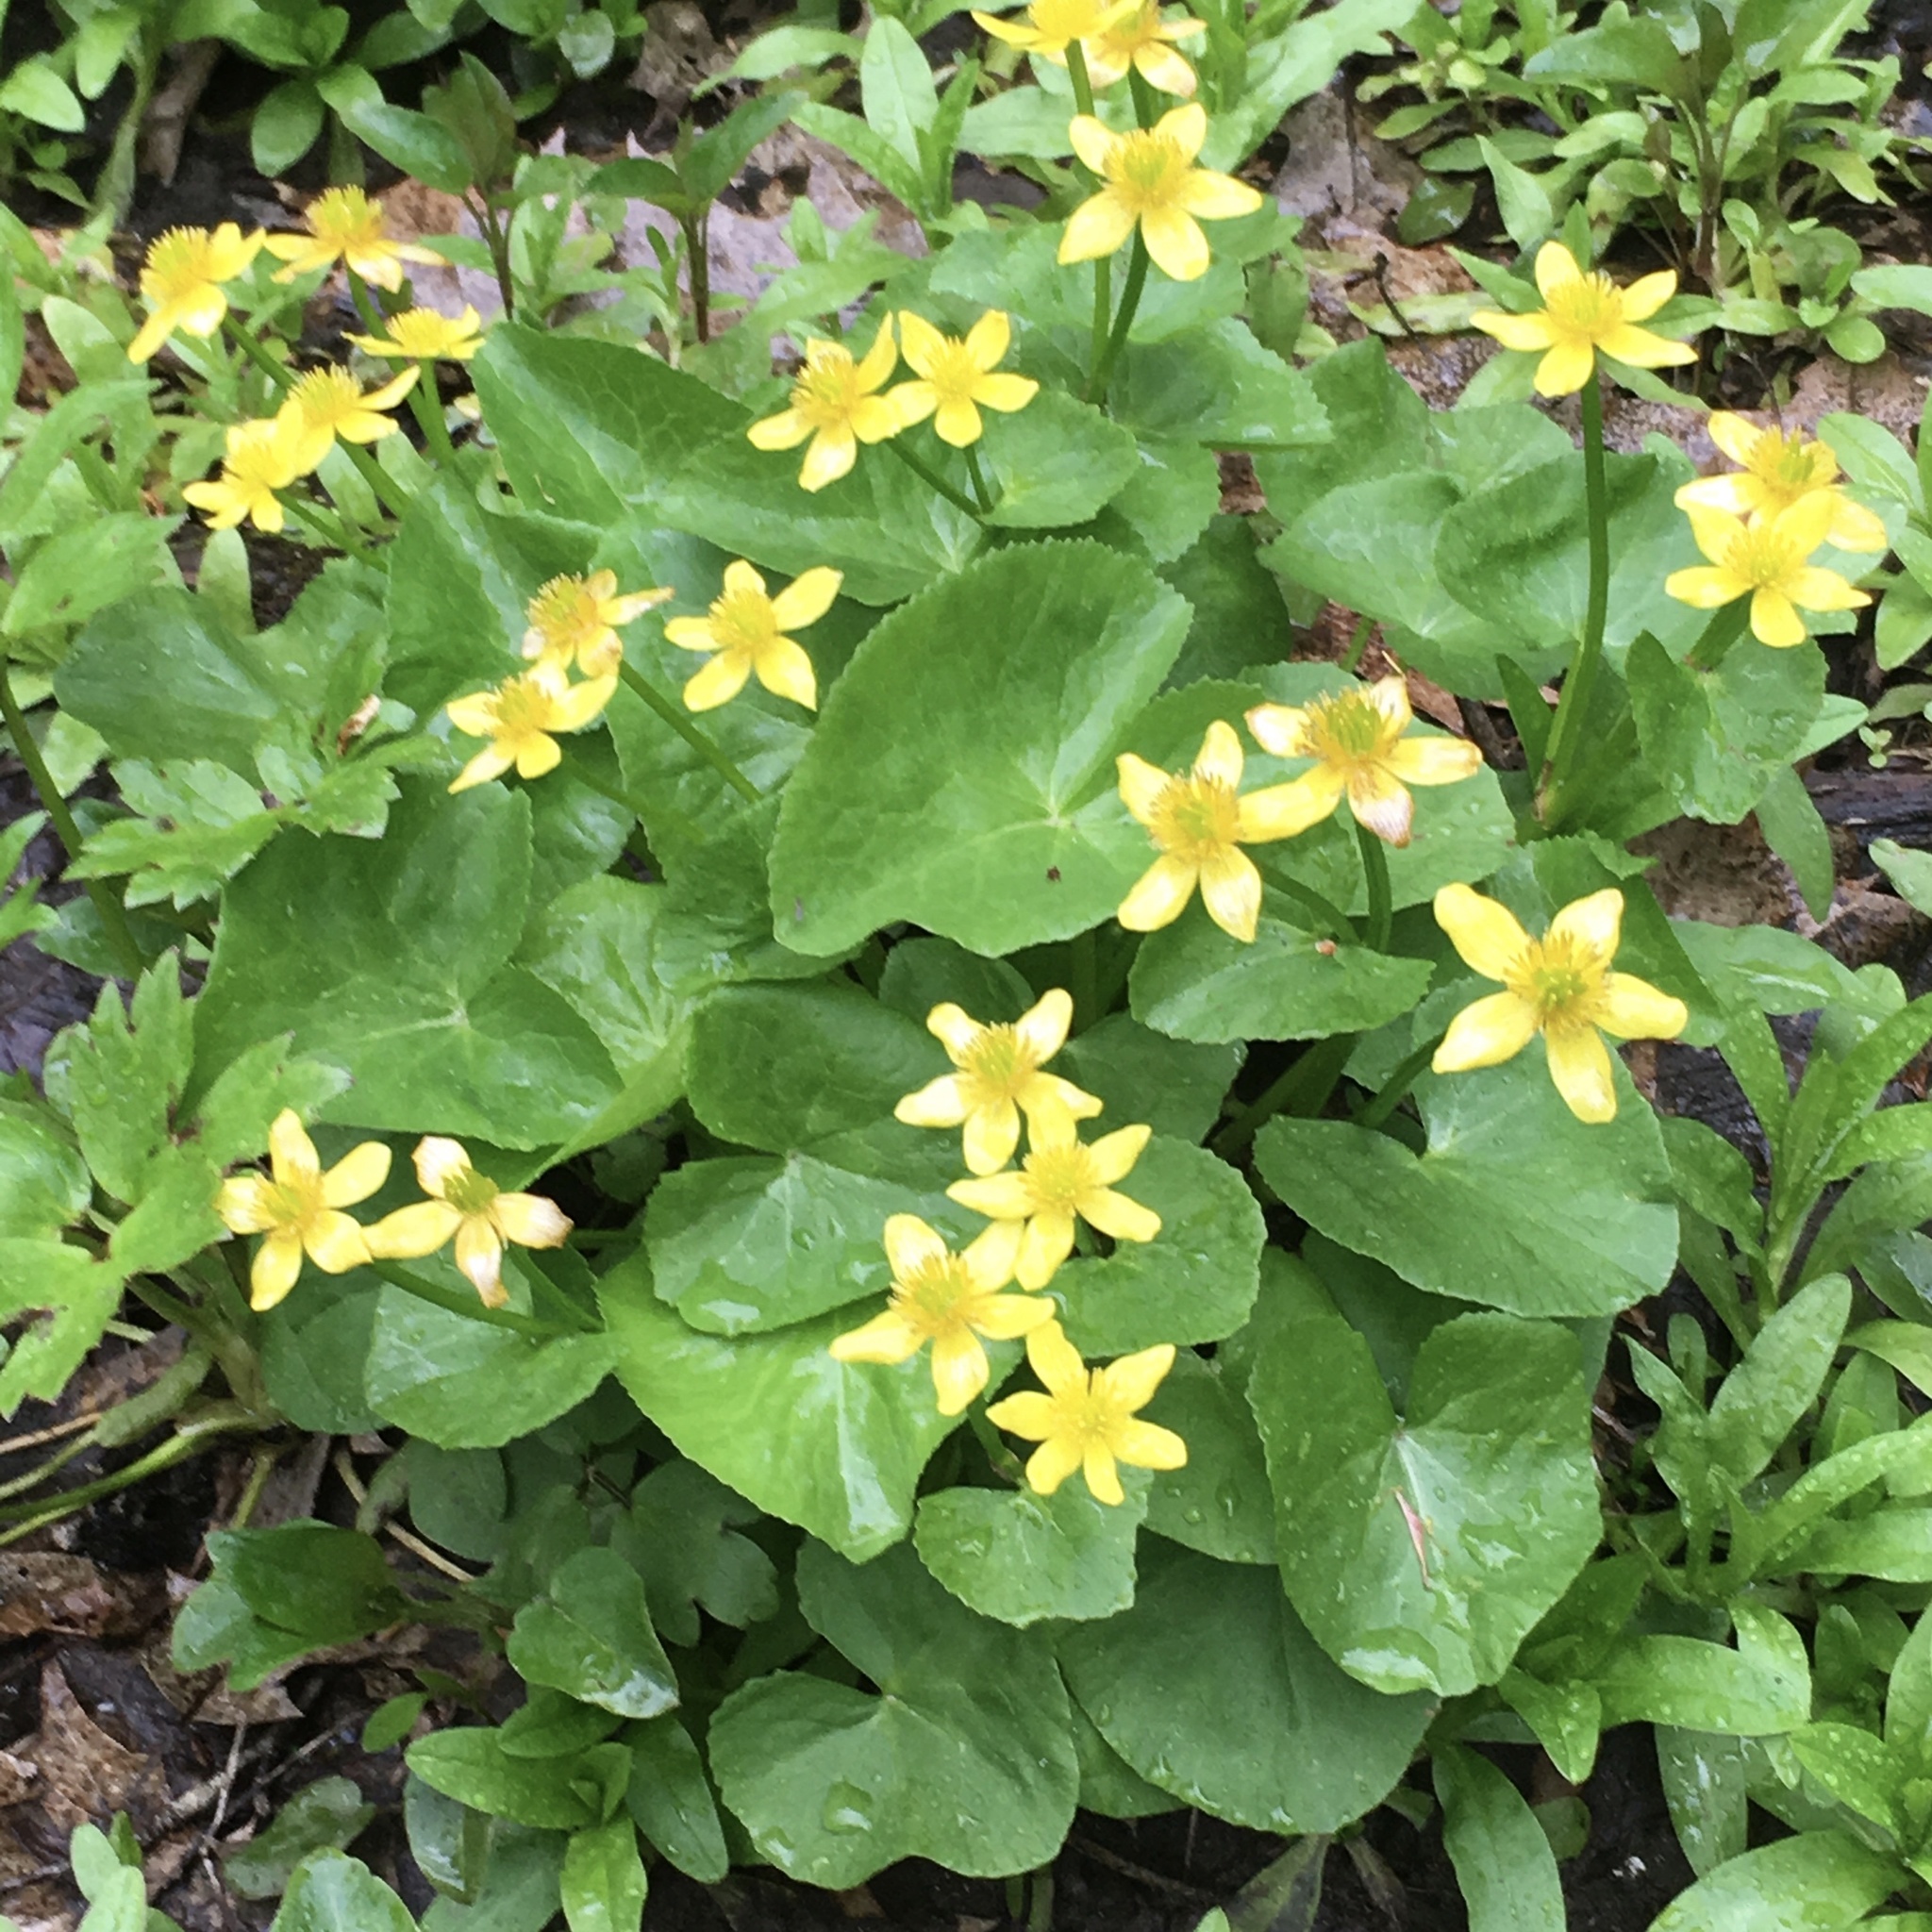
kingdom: Plantae
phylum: Tracheophyta
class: Magnoliopsida
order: Ranunculales
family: Ranunculaceae
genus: Caltha
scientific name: Caltha palustris
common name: Marsh marigold
